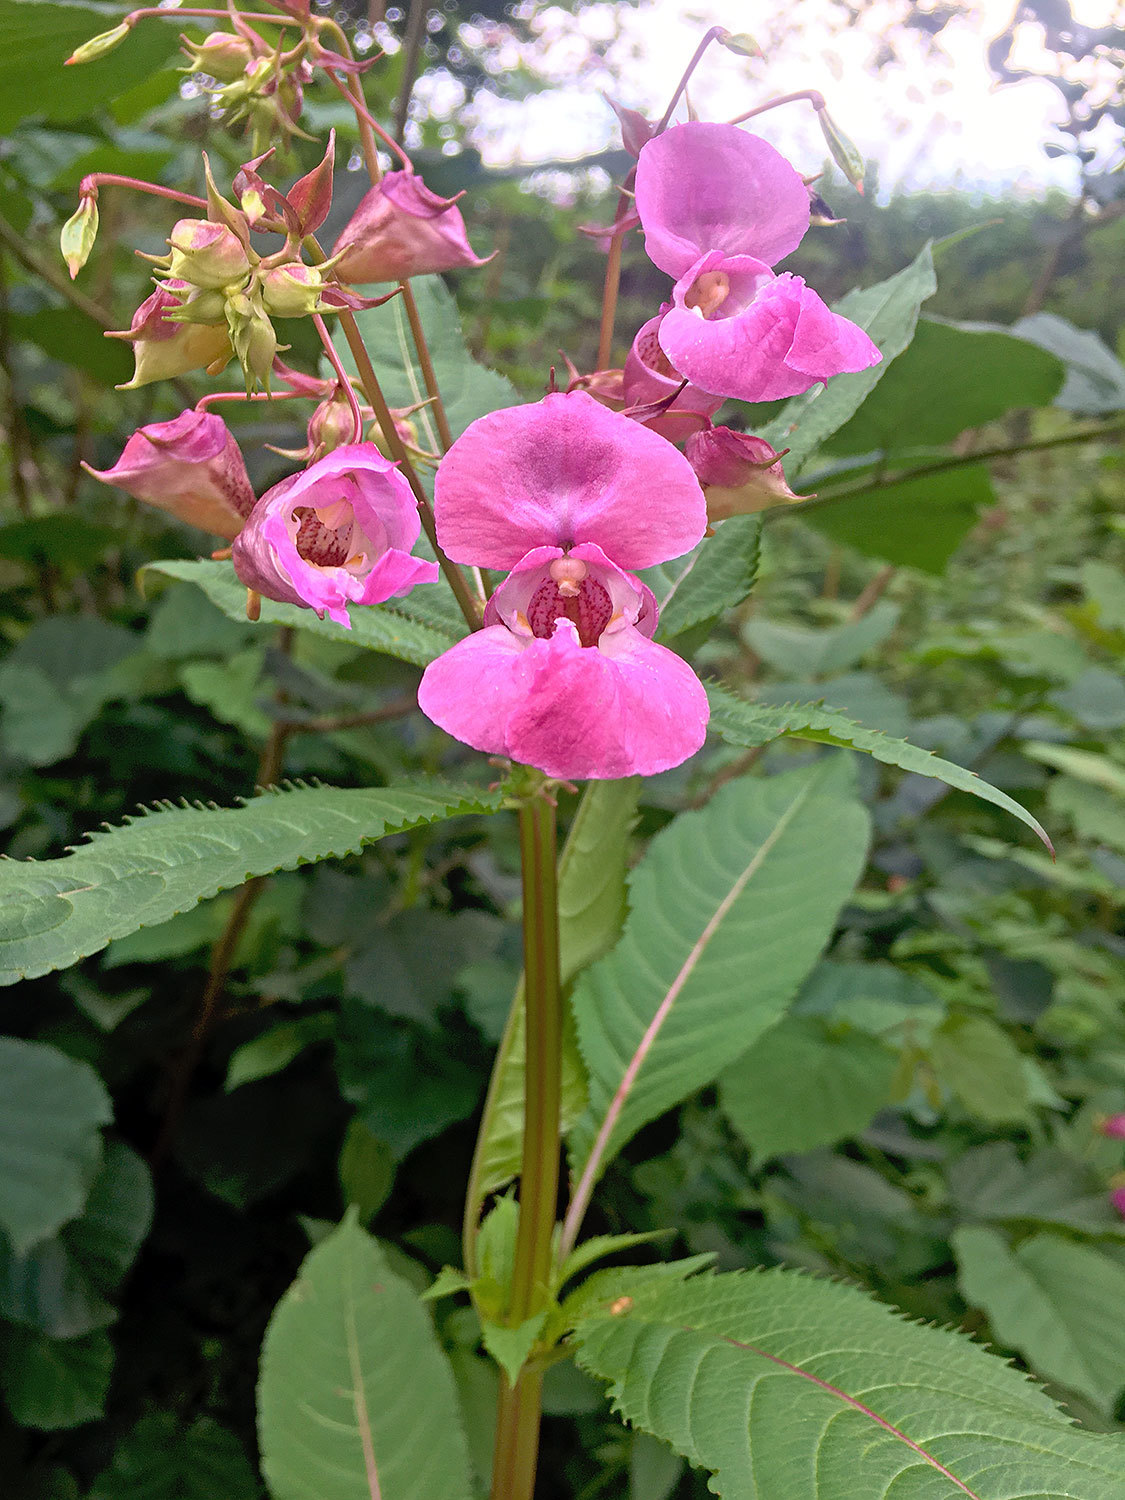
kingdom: Plantae
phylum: Tracheophyta
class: Magnoliopsida
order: Ericales
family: Balsaminaceae
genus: Impatiens
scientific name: Impatiens glandulifera
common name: Himalayan balsam
